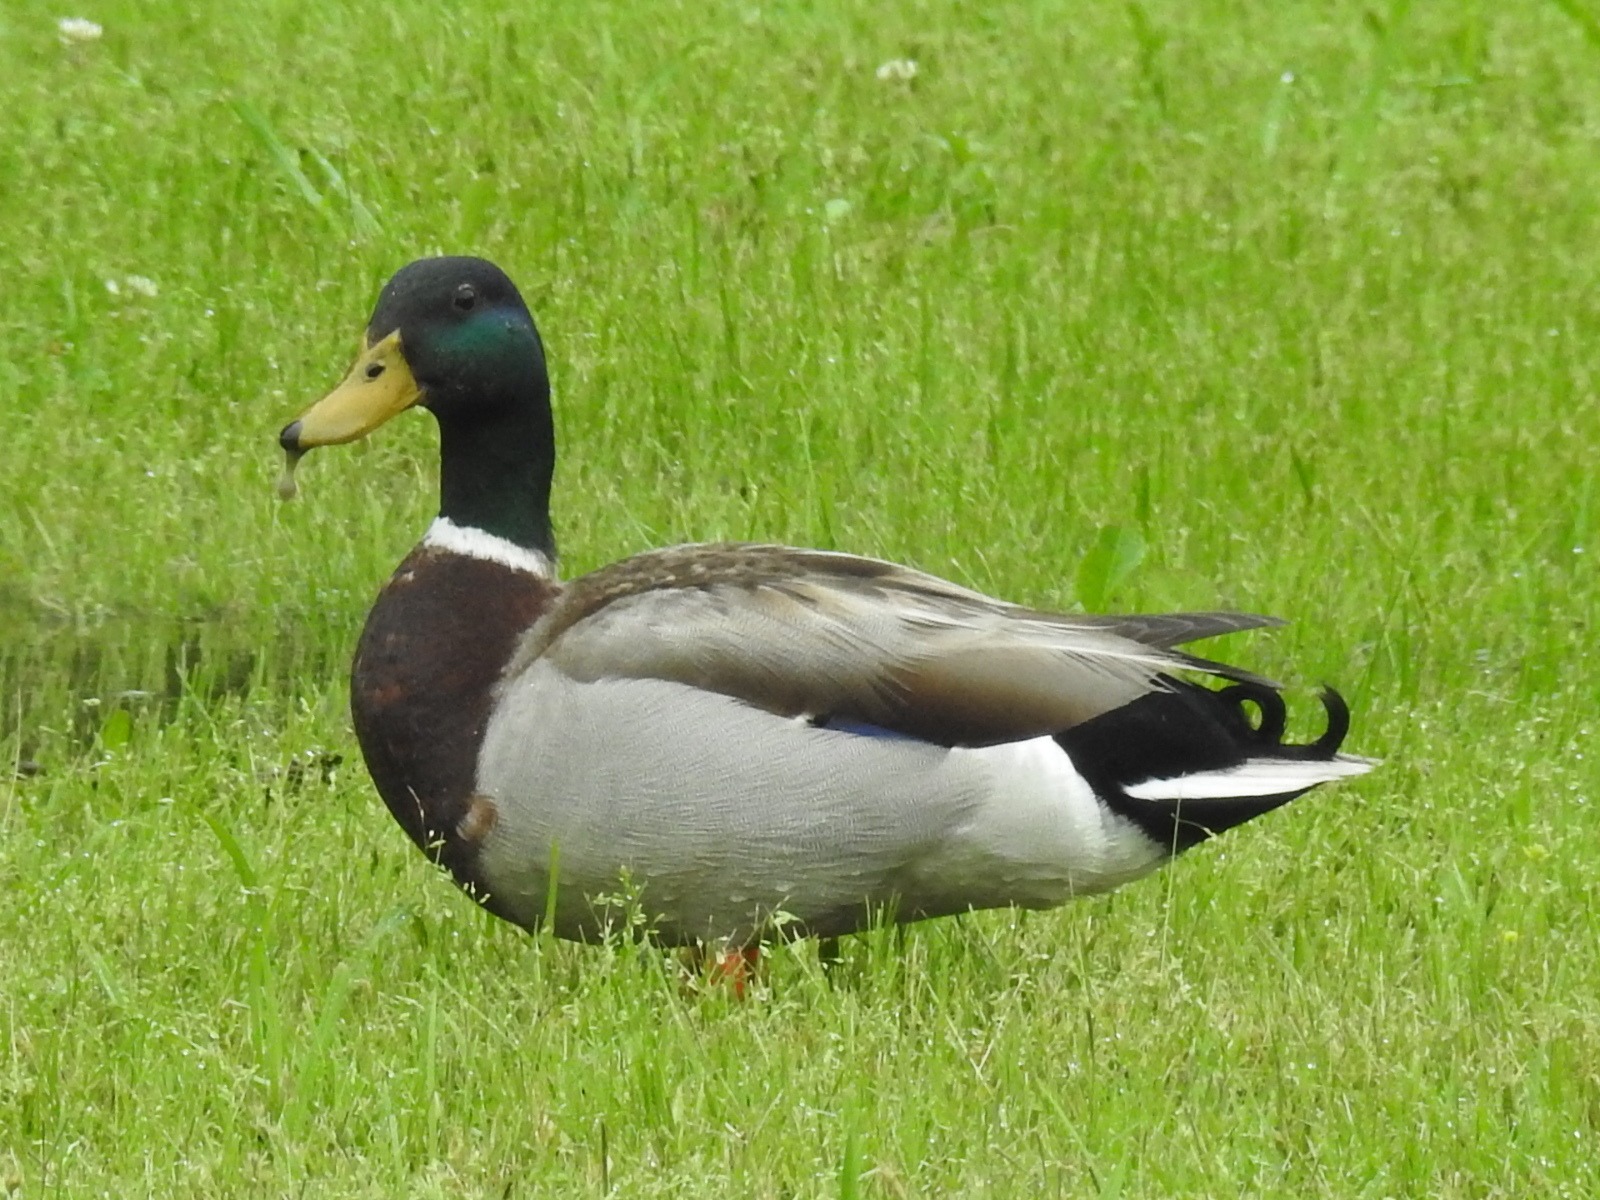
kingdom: Animalia
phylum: Chordata
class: Aves
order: Anseriformes
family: Anatidae
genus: Anas
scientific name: Anas platyrhynchos
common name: Mallard
